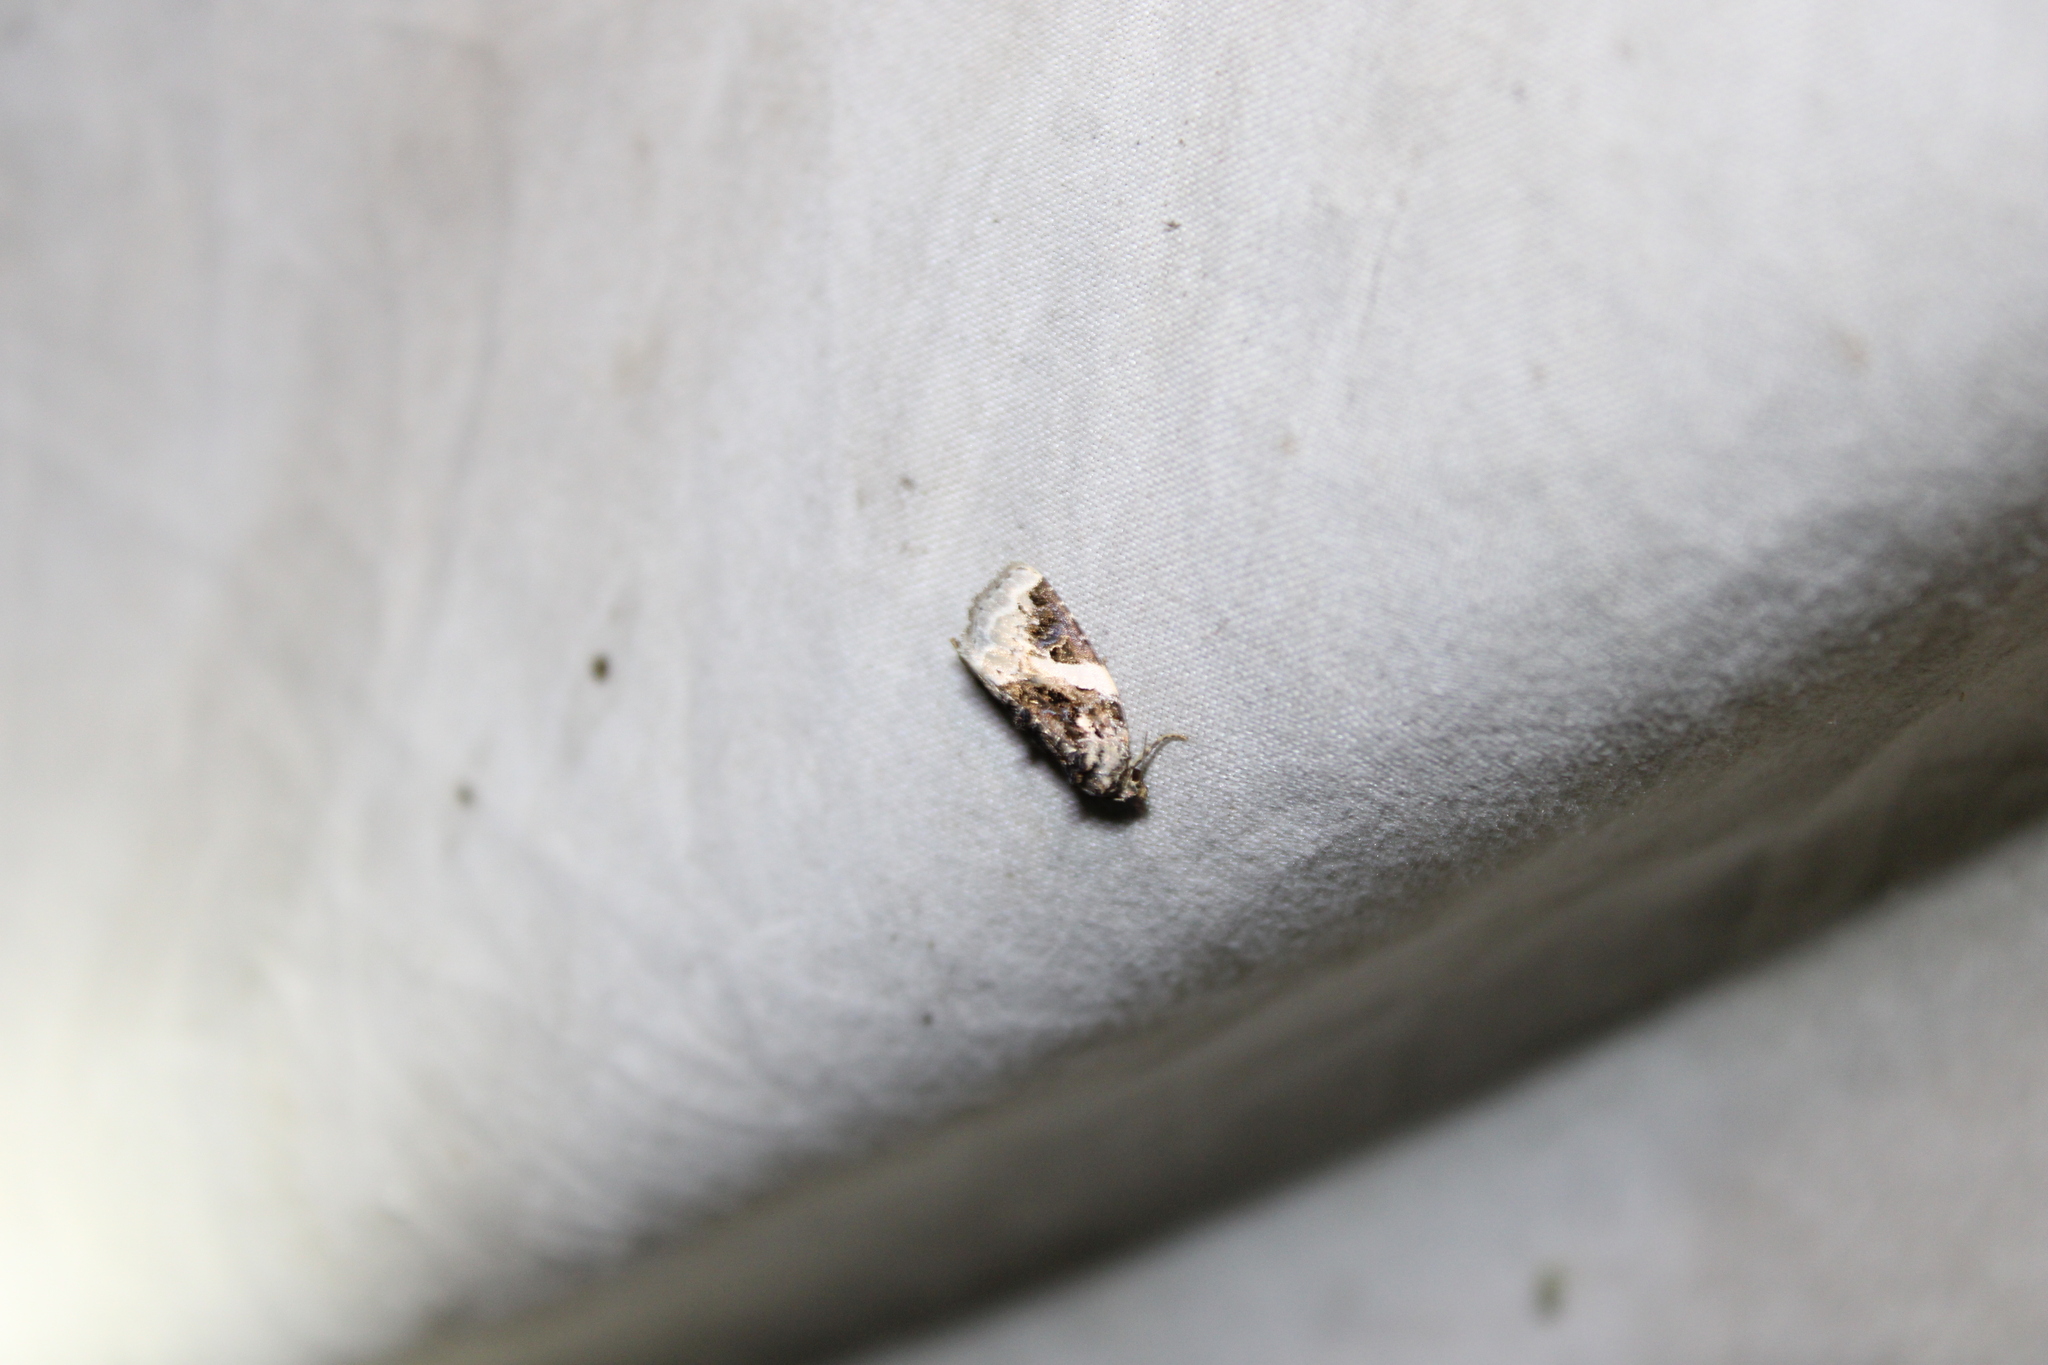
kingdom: Animalia
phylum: Arthropoda
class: Insecta
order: Lepidoptera
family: Noctuidae
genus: Pseudeustrotia
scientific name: Pseudeustrotia carneola
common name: Pink-barred lithacodia moth
